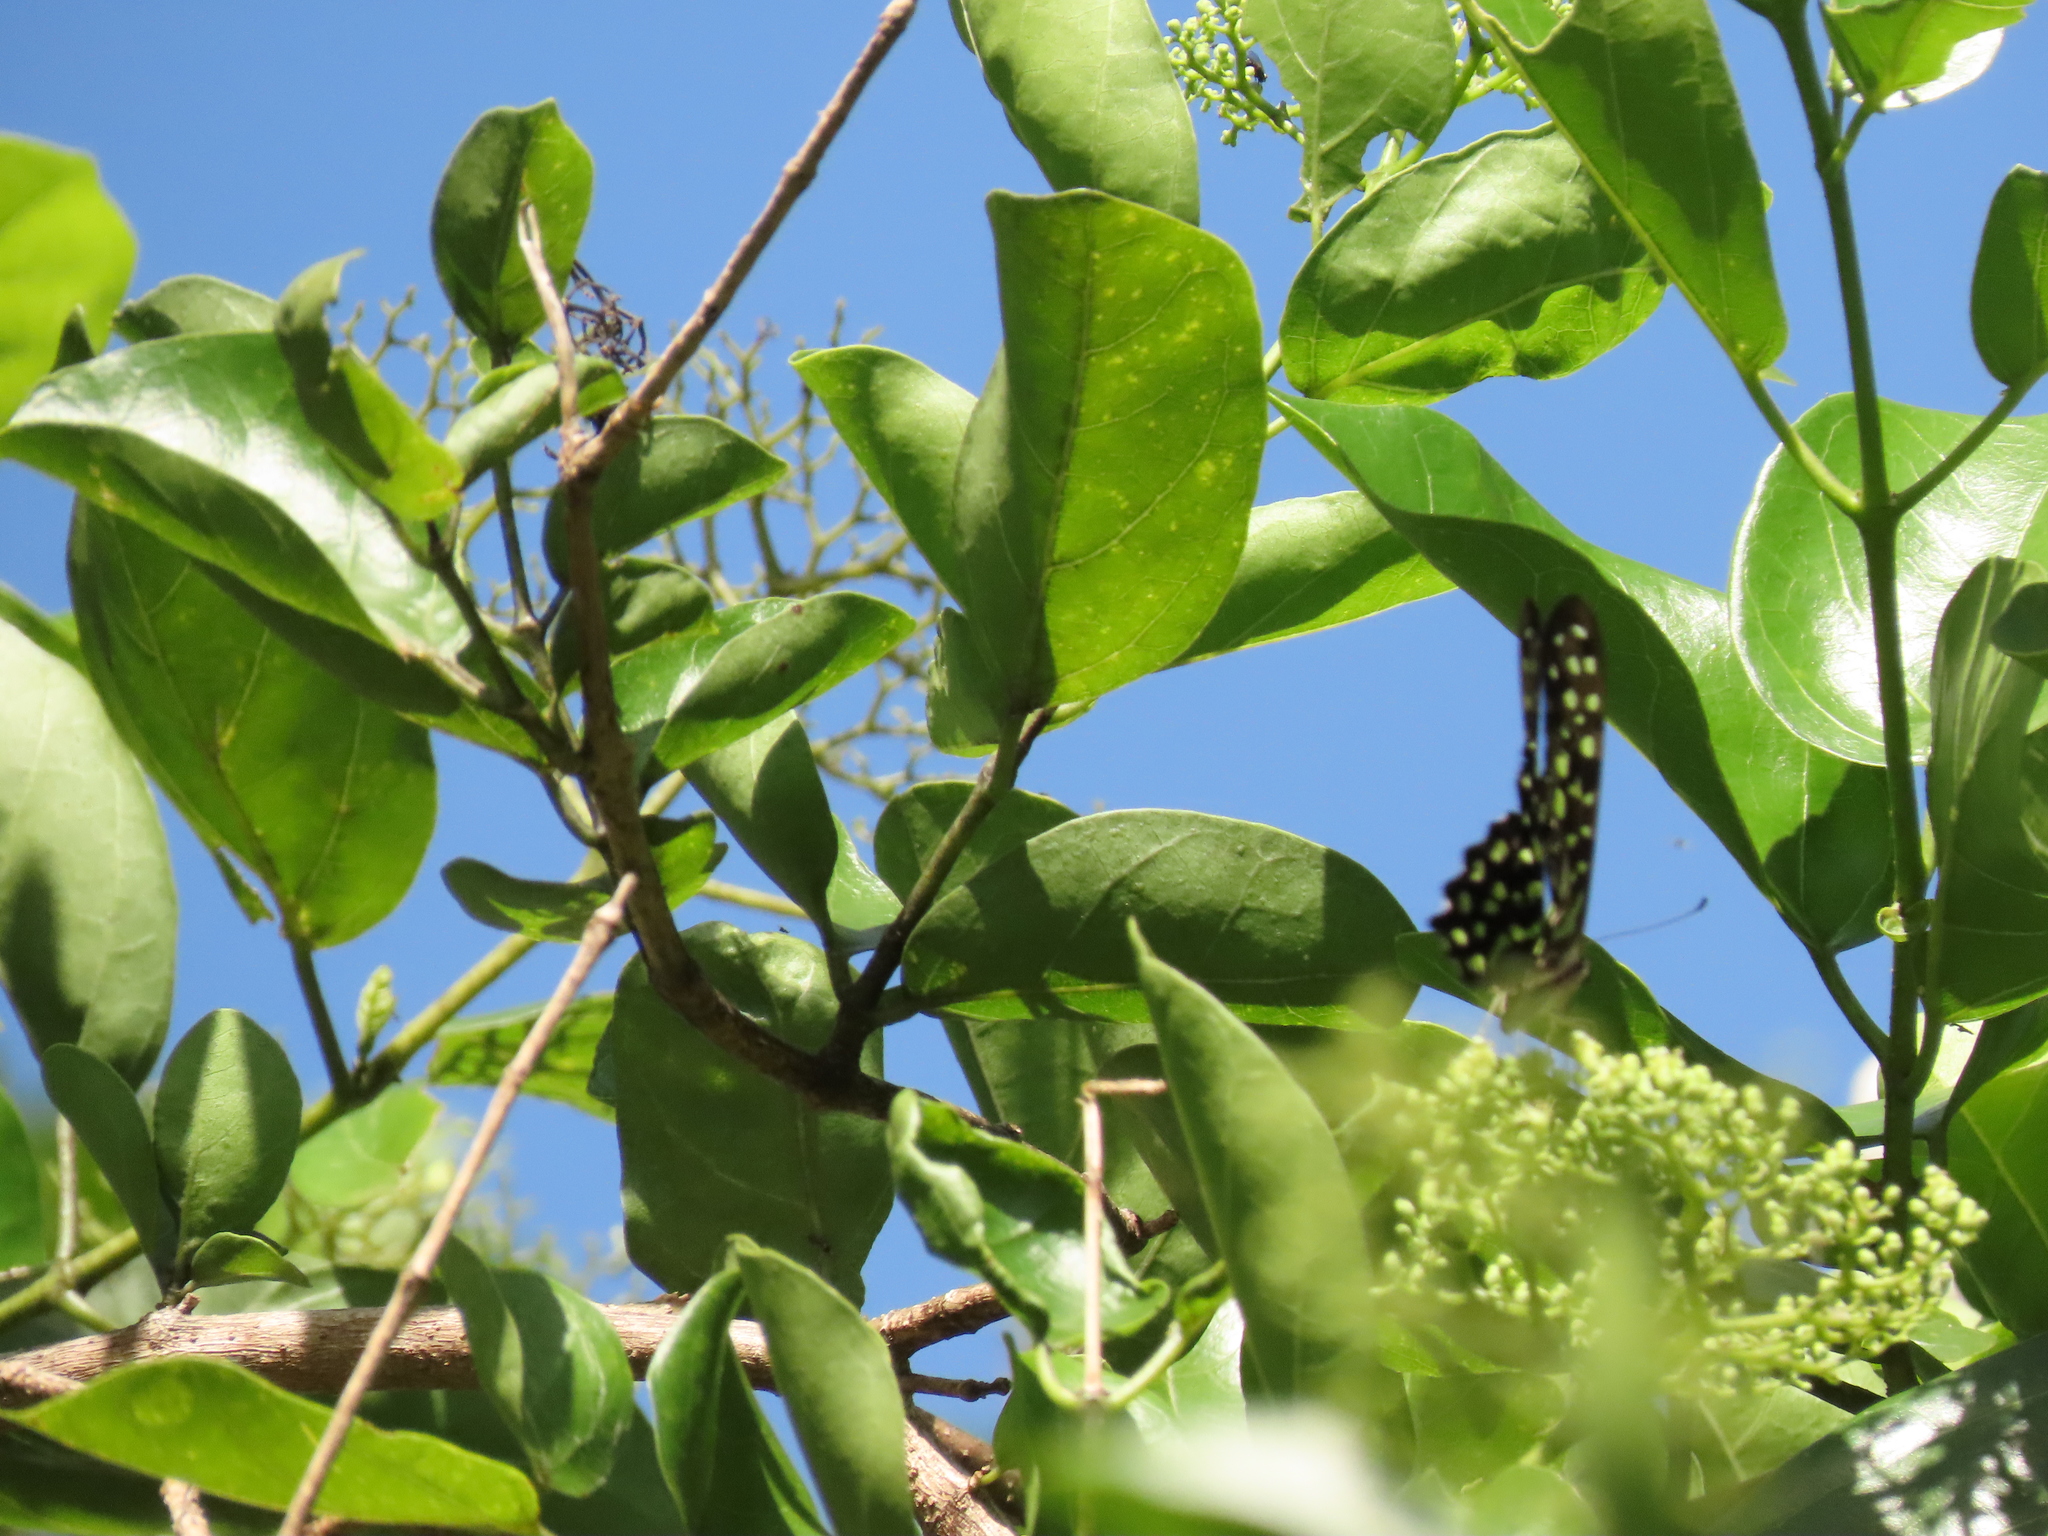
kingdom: Animalia
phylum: Arthropoda
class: Insecta
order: Lepidoptera
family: Papilionidae
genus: Graphium
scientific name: Graphium agamemnon
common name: Tailed jay
